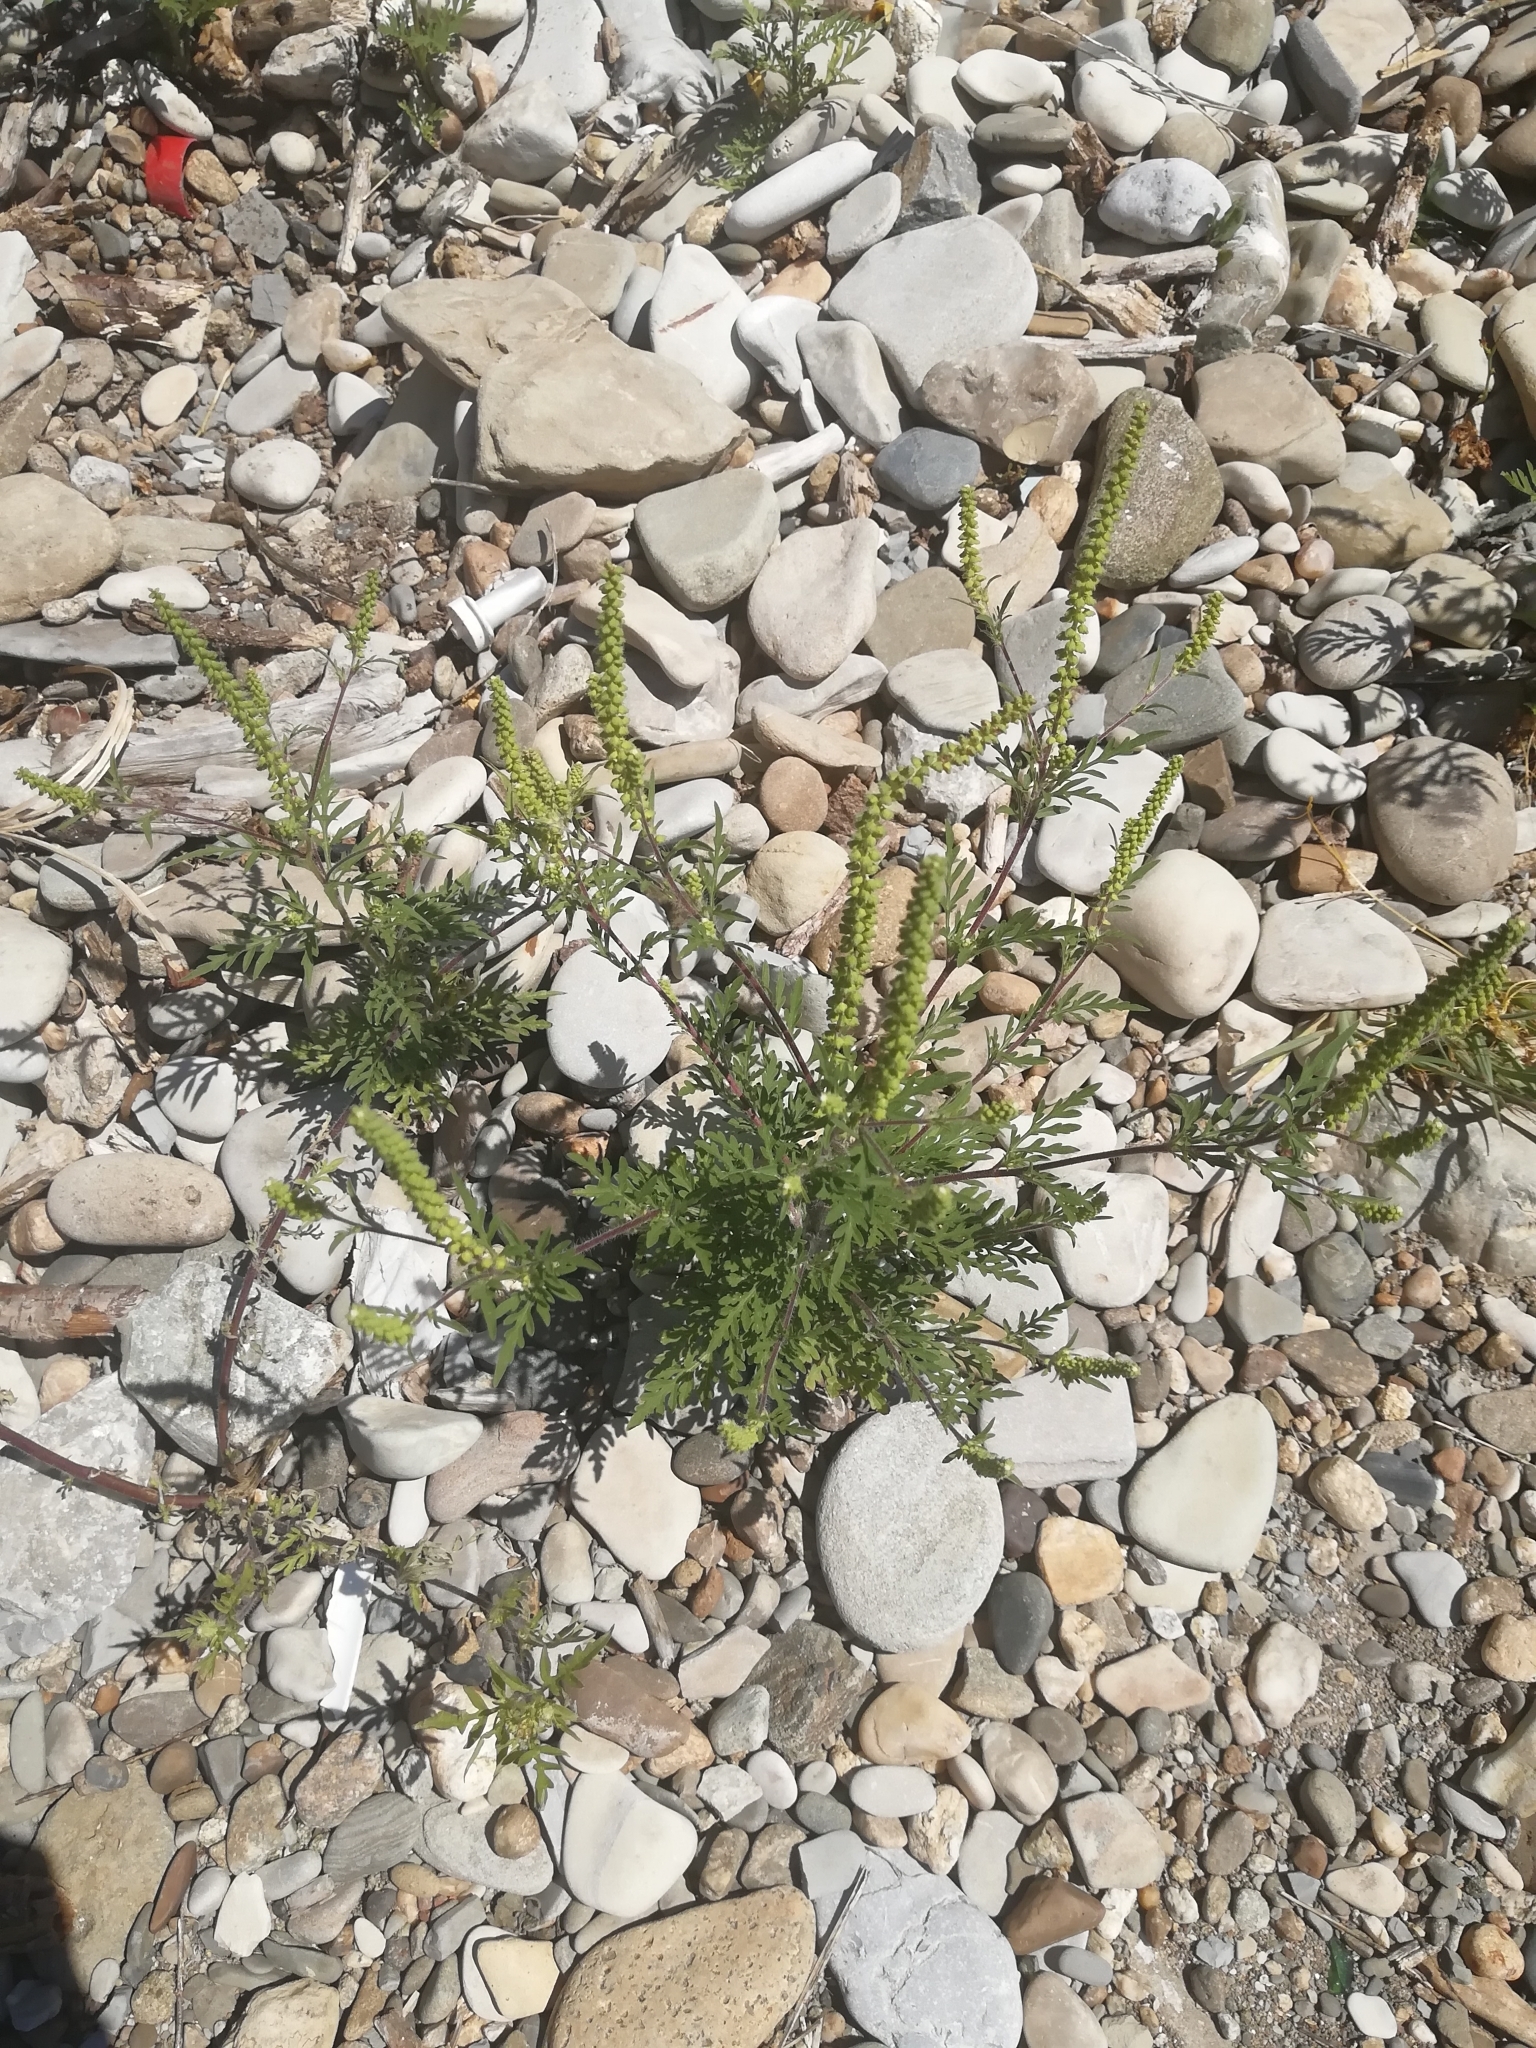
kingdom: Plantae
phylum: Tracheophyta
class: Magnoliopsida
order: Asterales
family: Asteraceae
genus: Ambrosia
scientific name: Ambrosia artemisiifolia
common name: Annual ragweed
